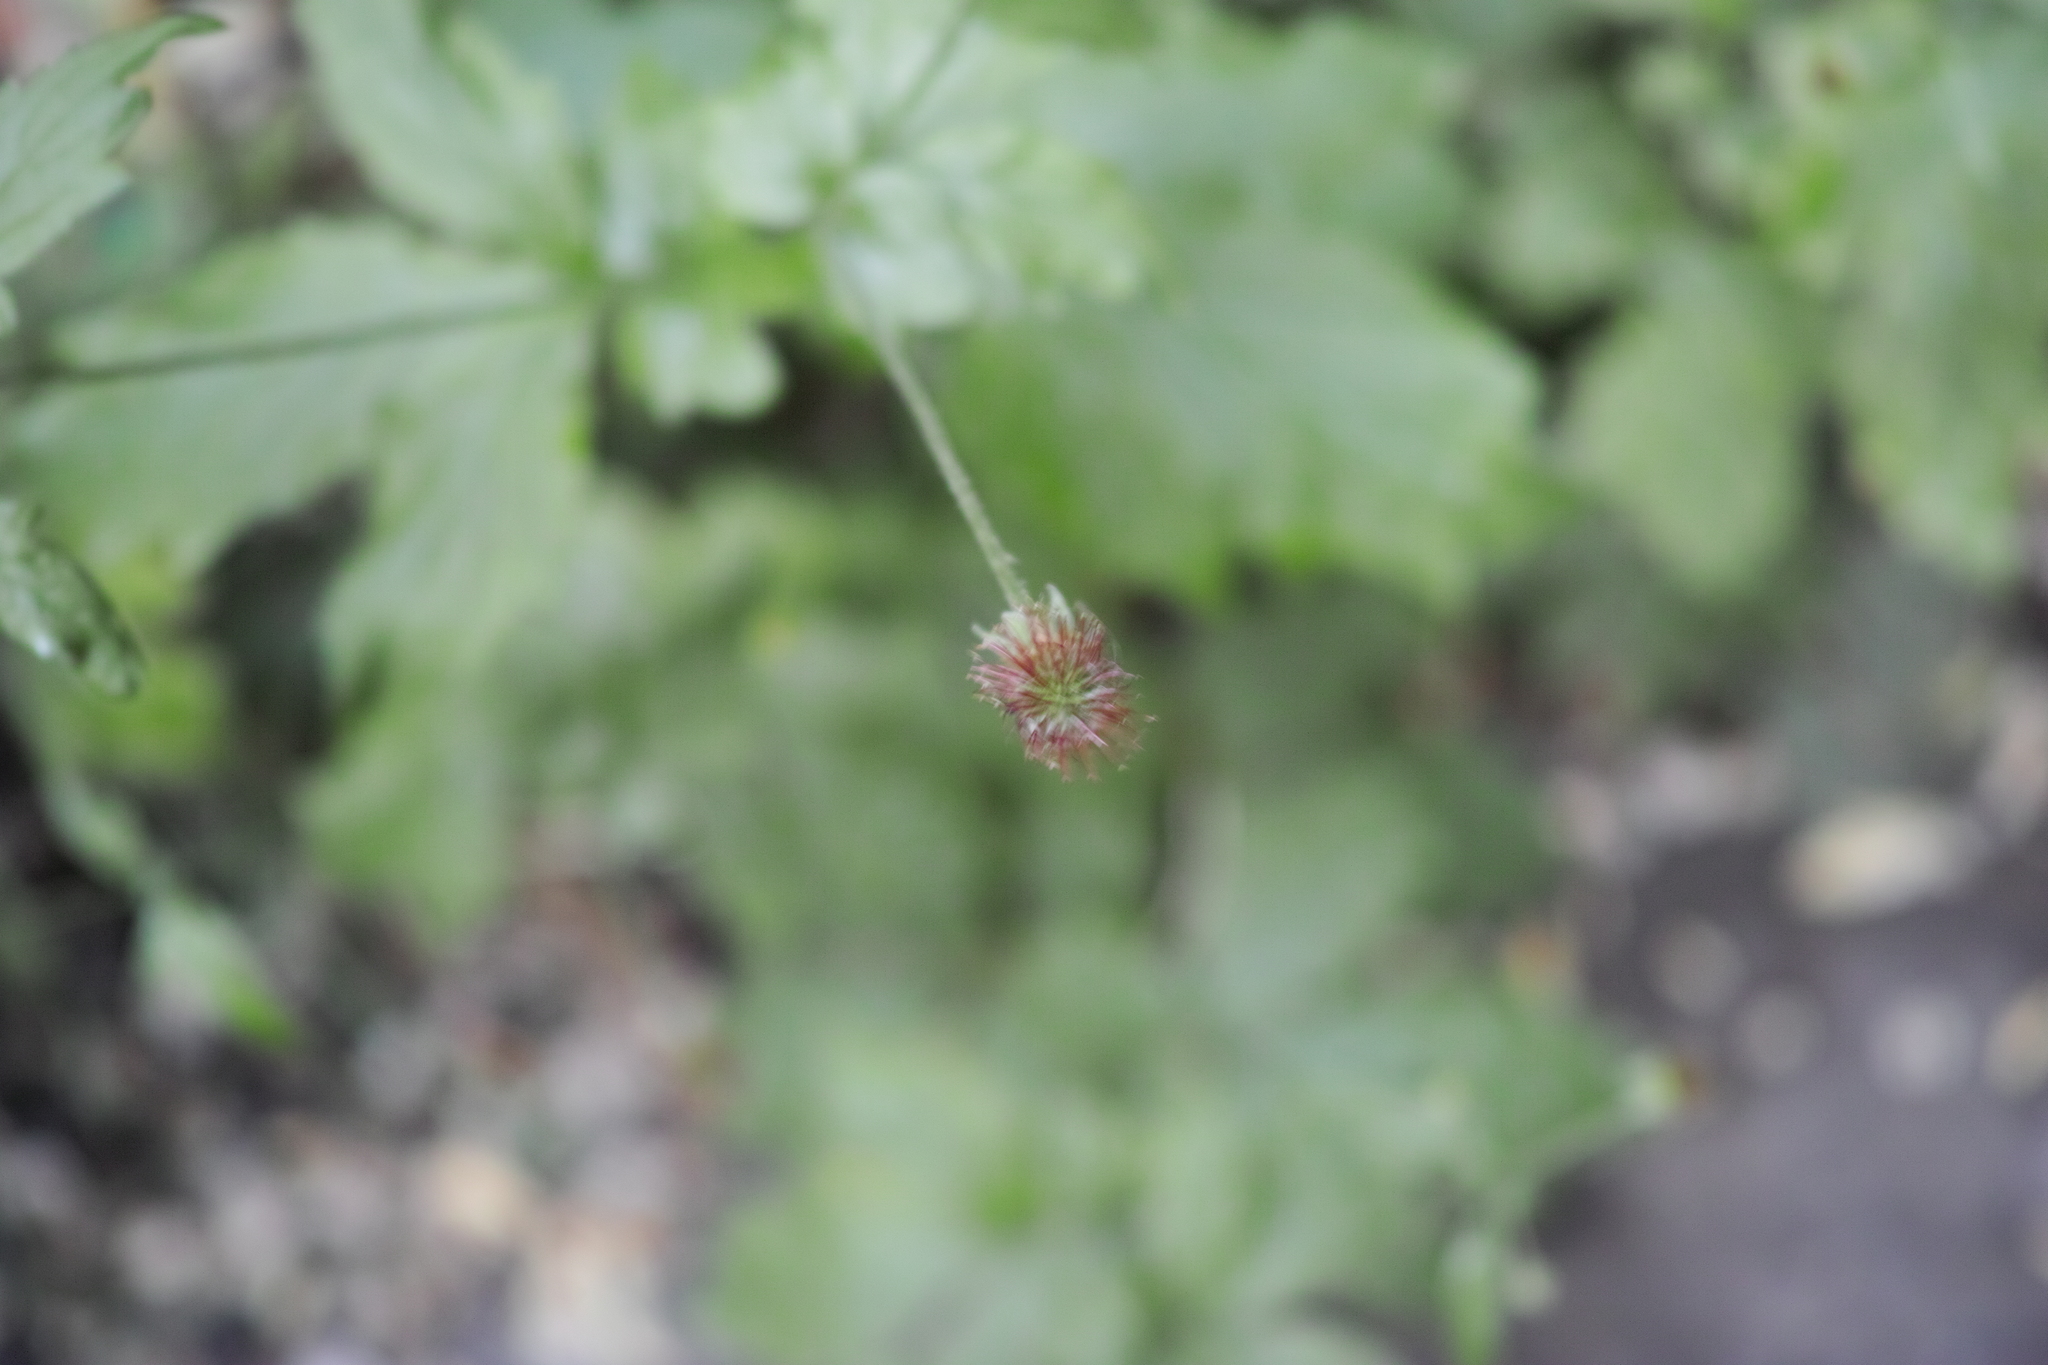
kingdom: Plantae
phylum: Tracheophyta
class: Magnoliopsida
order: Rosales
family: Rosaceae
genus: Geum
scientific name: Geum urbanum
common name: Wood avens
